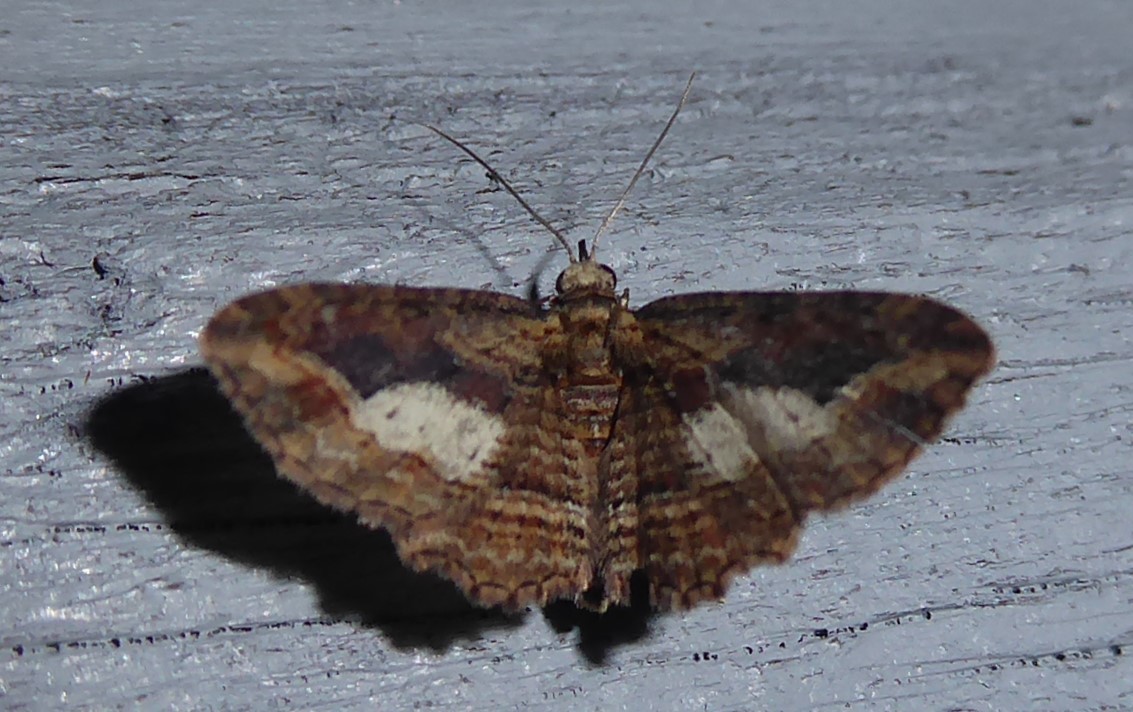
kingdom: Animalia
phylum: Arthropoda
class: Insecta
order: Lepidoptera
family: Geometridae
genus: Chloroclystis
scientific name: Chloroclystis filata
